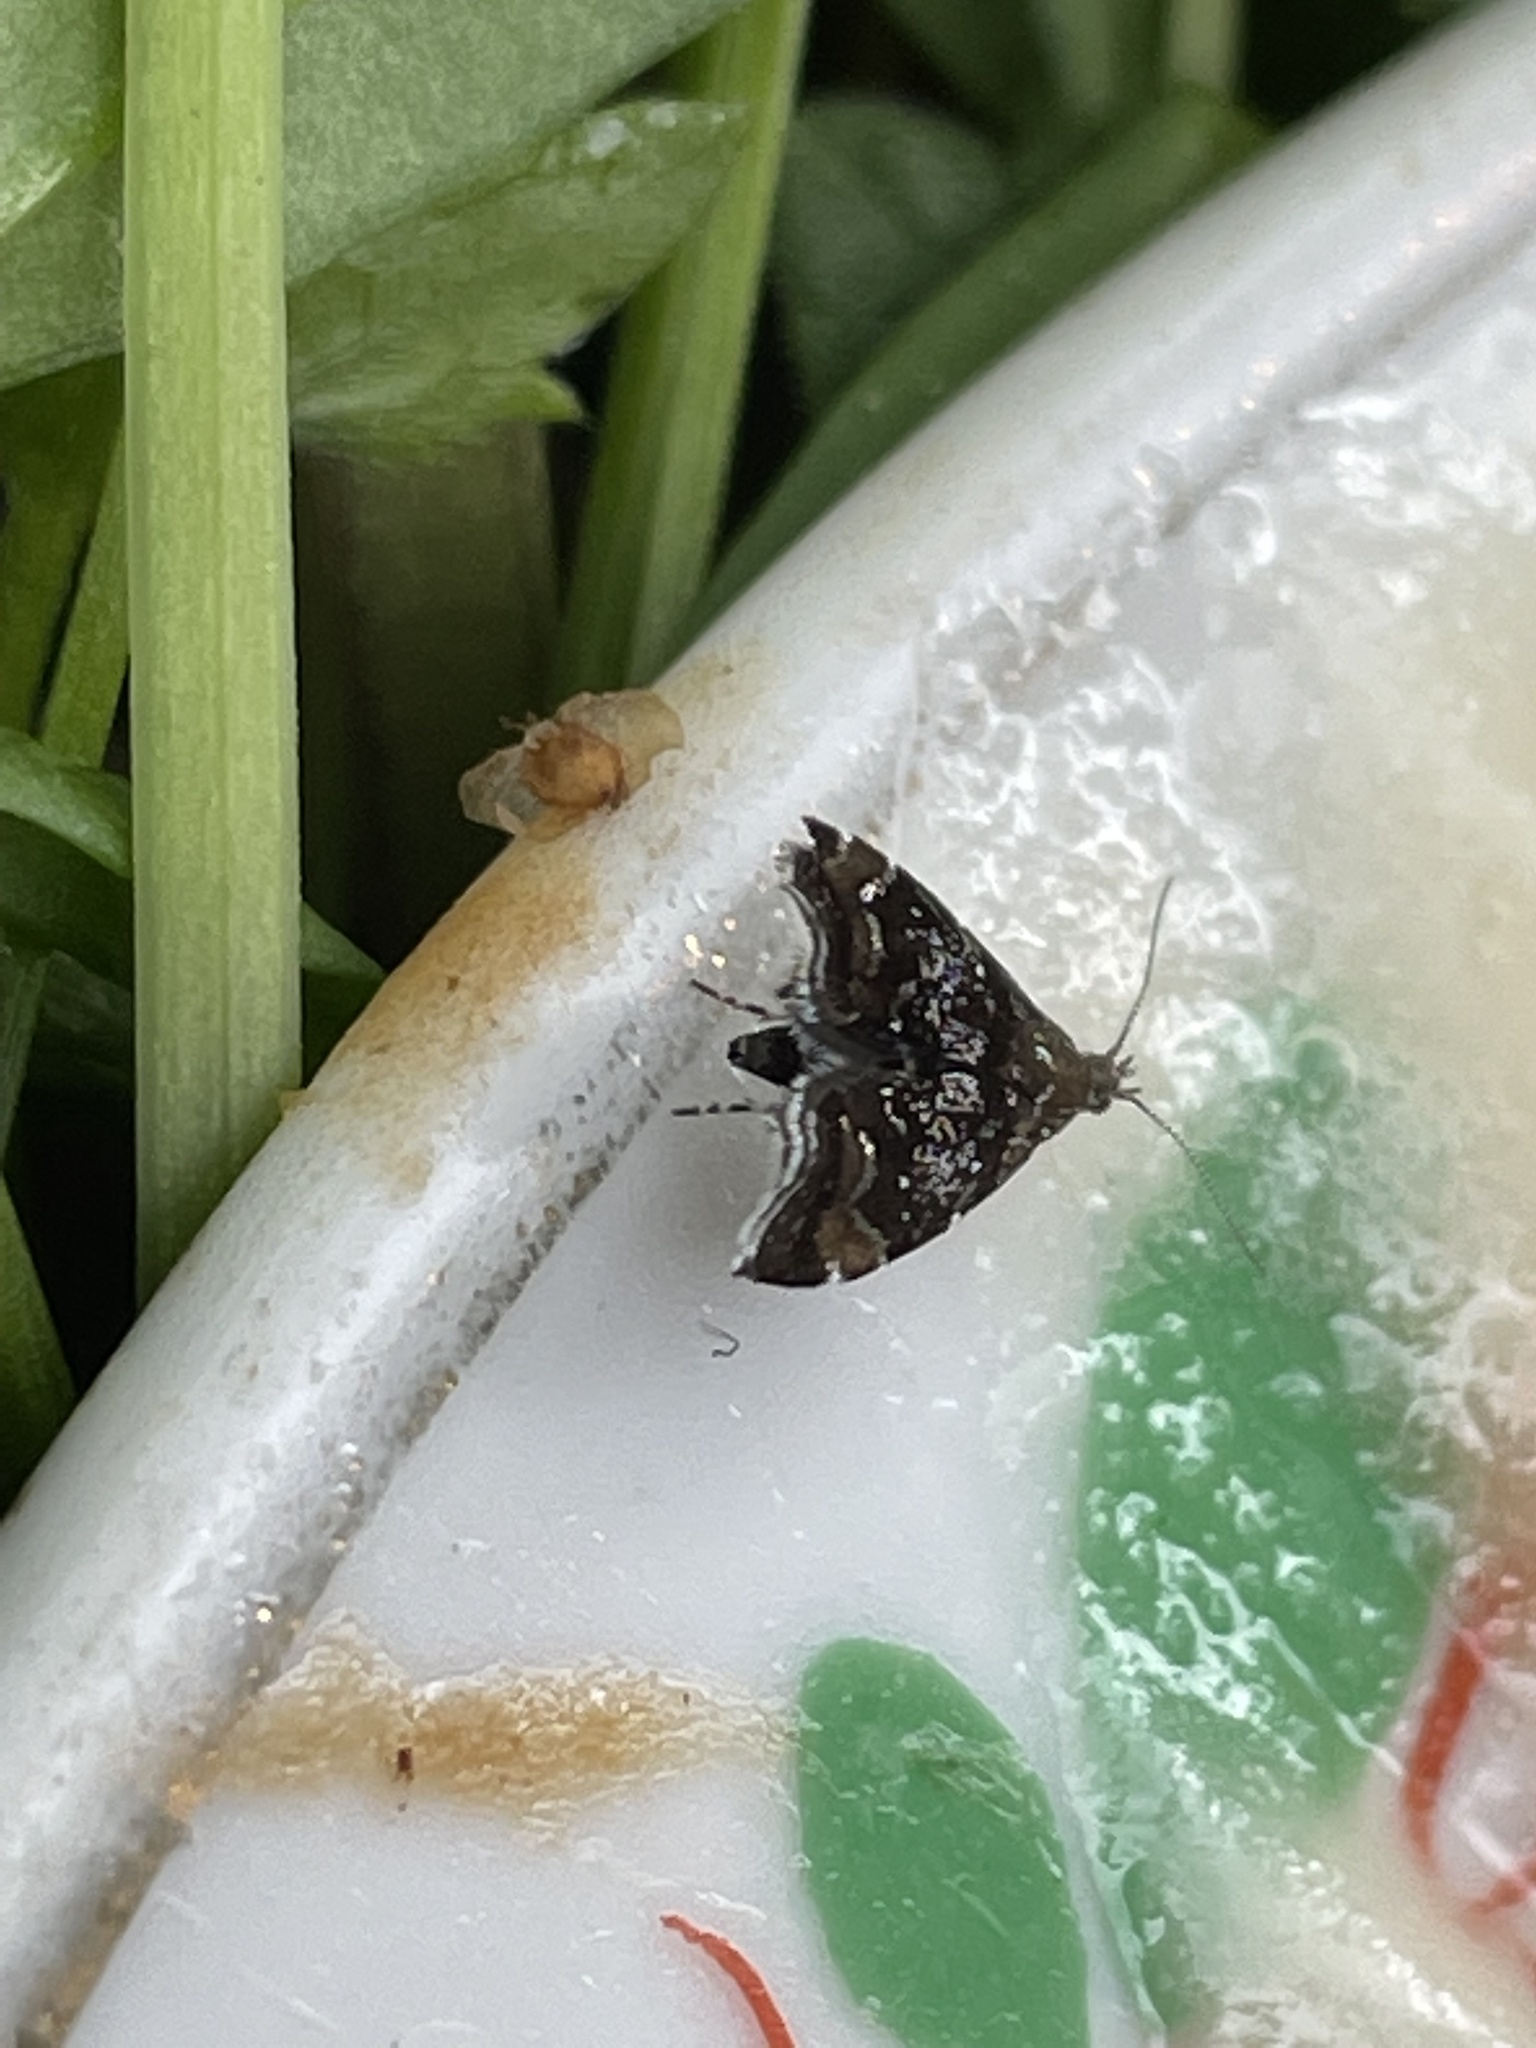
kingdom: Animalia
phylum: Arthropoda
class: Insecta
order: Lepidoptera
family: Choreutidae
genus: Prochoreutis
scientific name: Prochoreutis sehestediana
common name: Silver-dot twitcher
